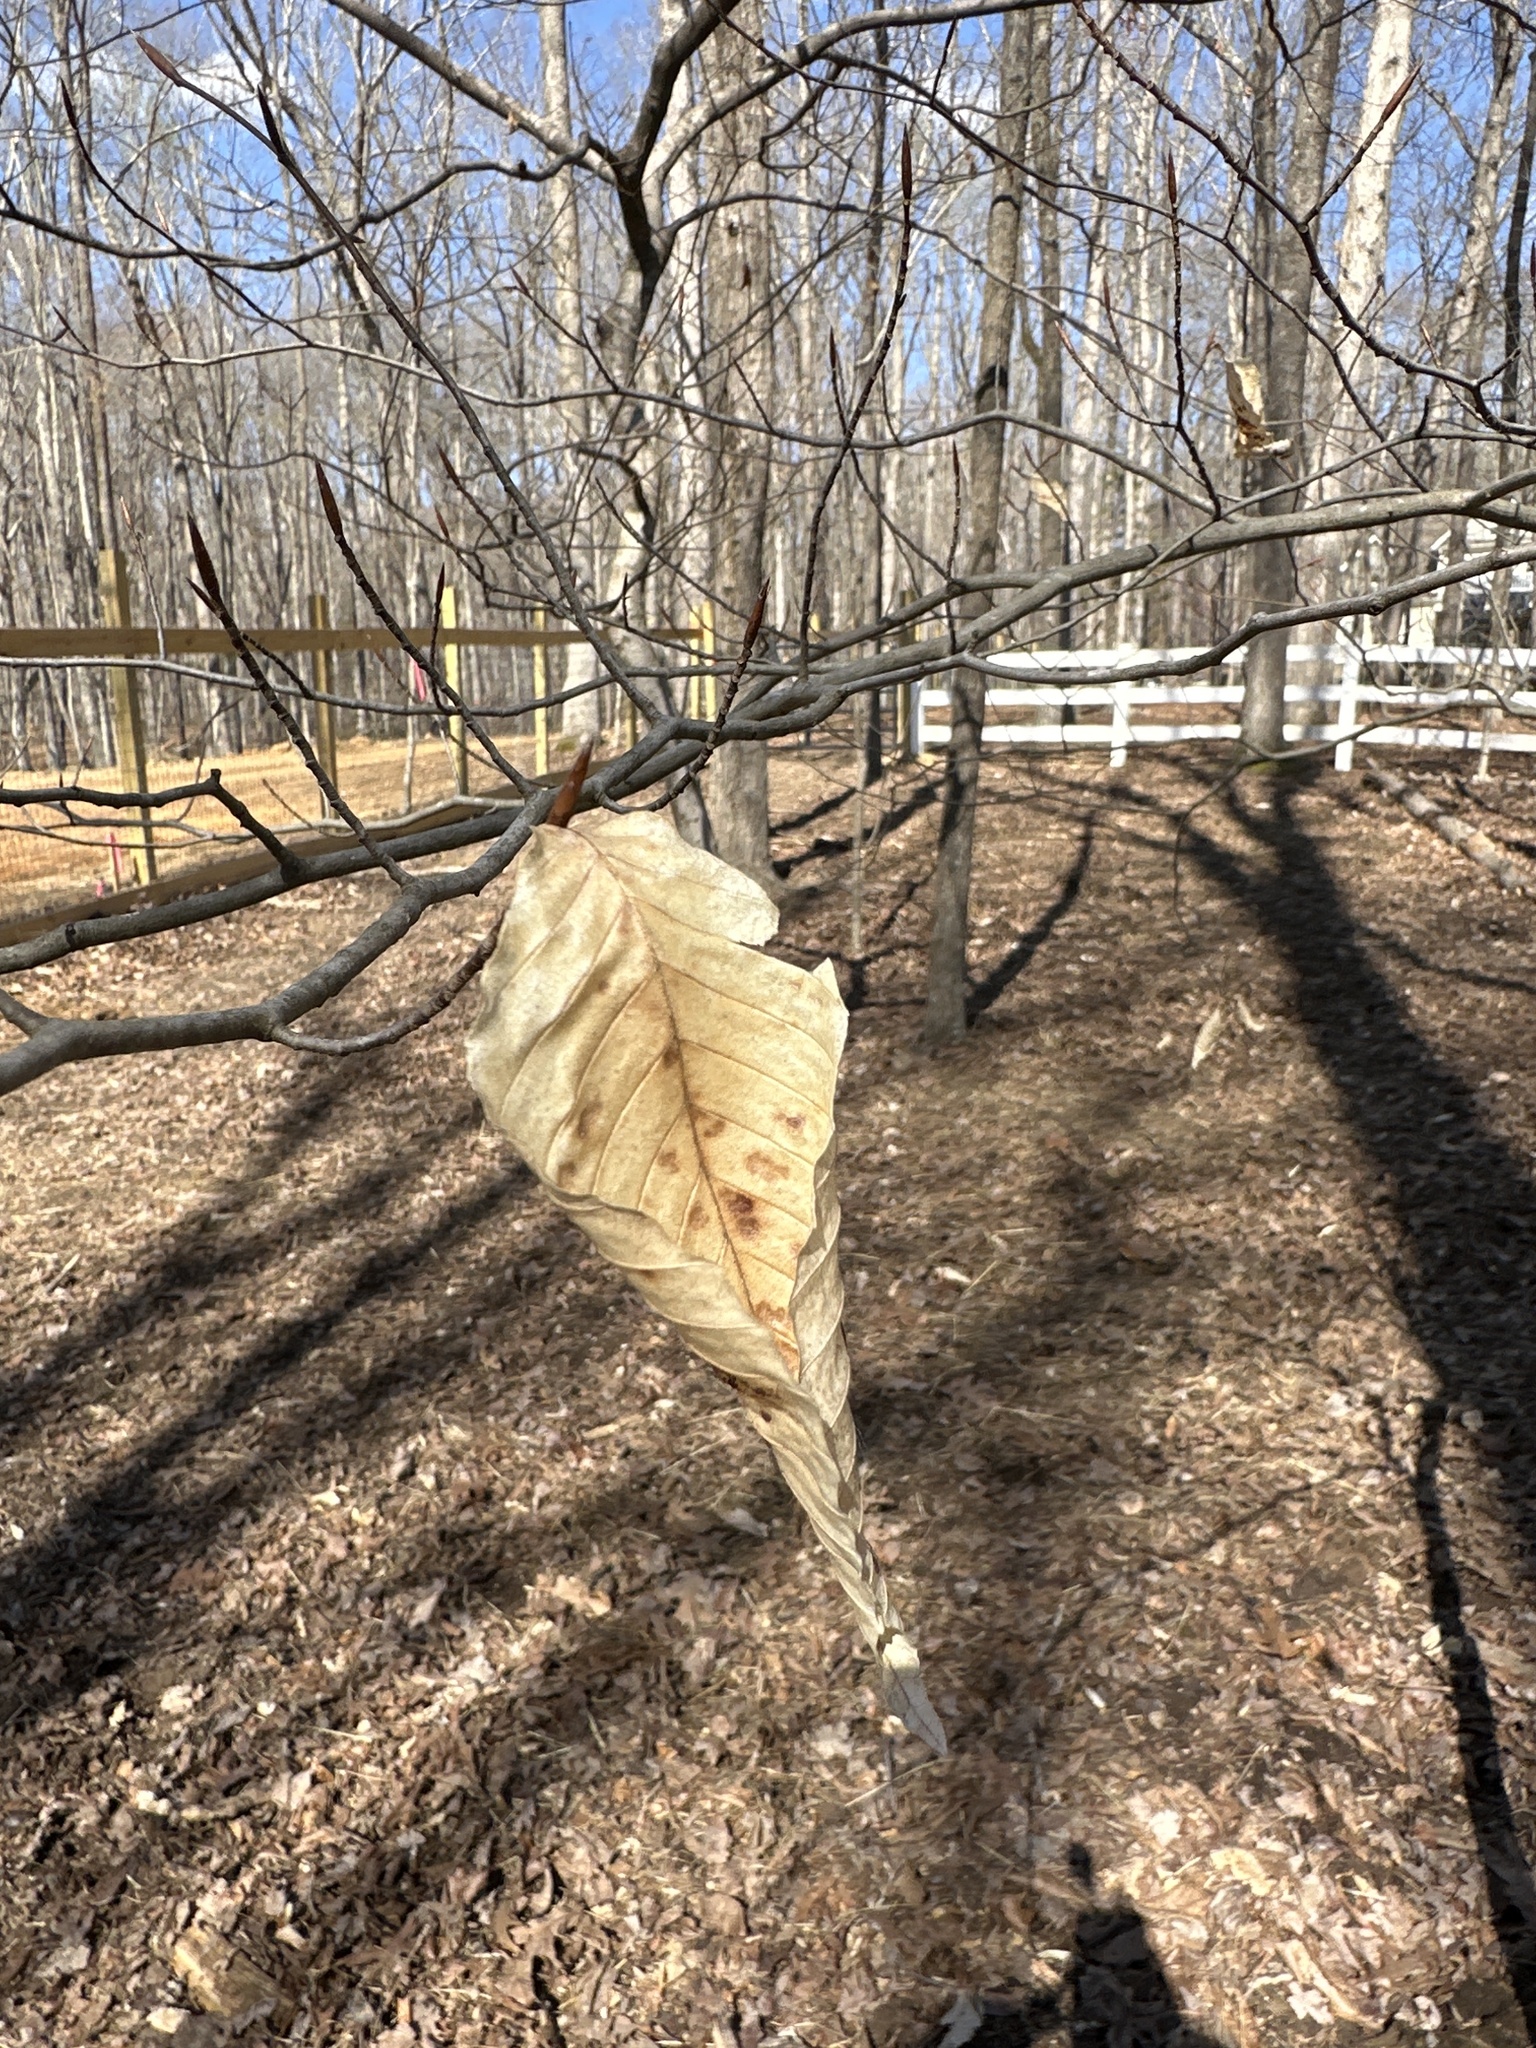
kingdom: Plantae
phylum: Tracheophyta
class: Magnoliopsida
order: Fagales
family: Fagaceae
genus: Fagus
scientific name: Fagus grandifolia
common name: American beech
